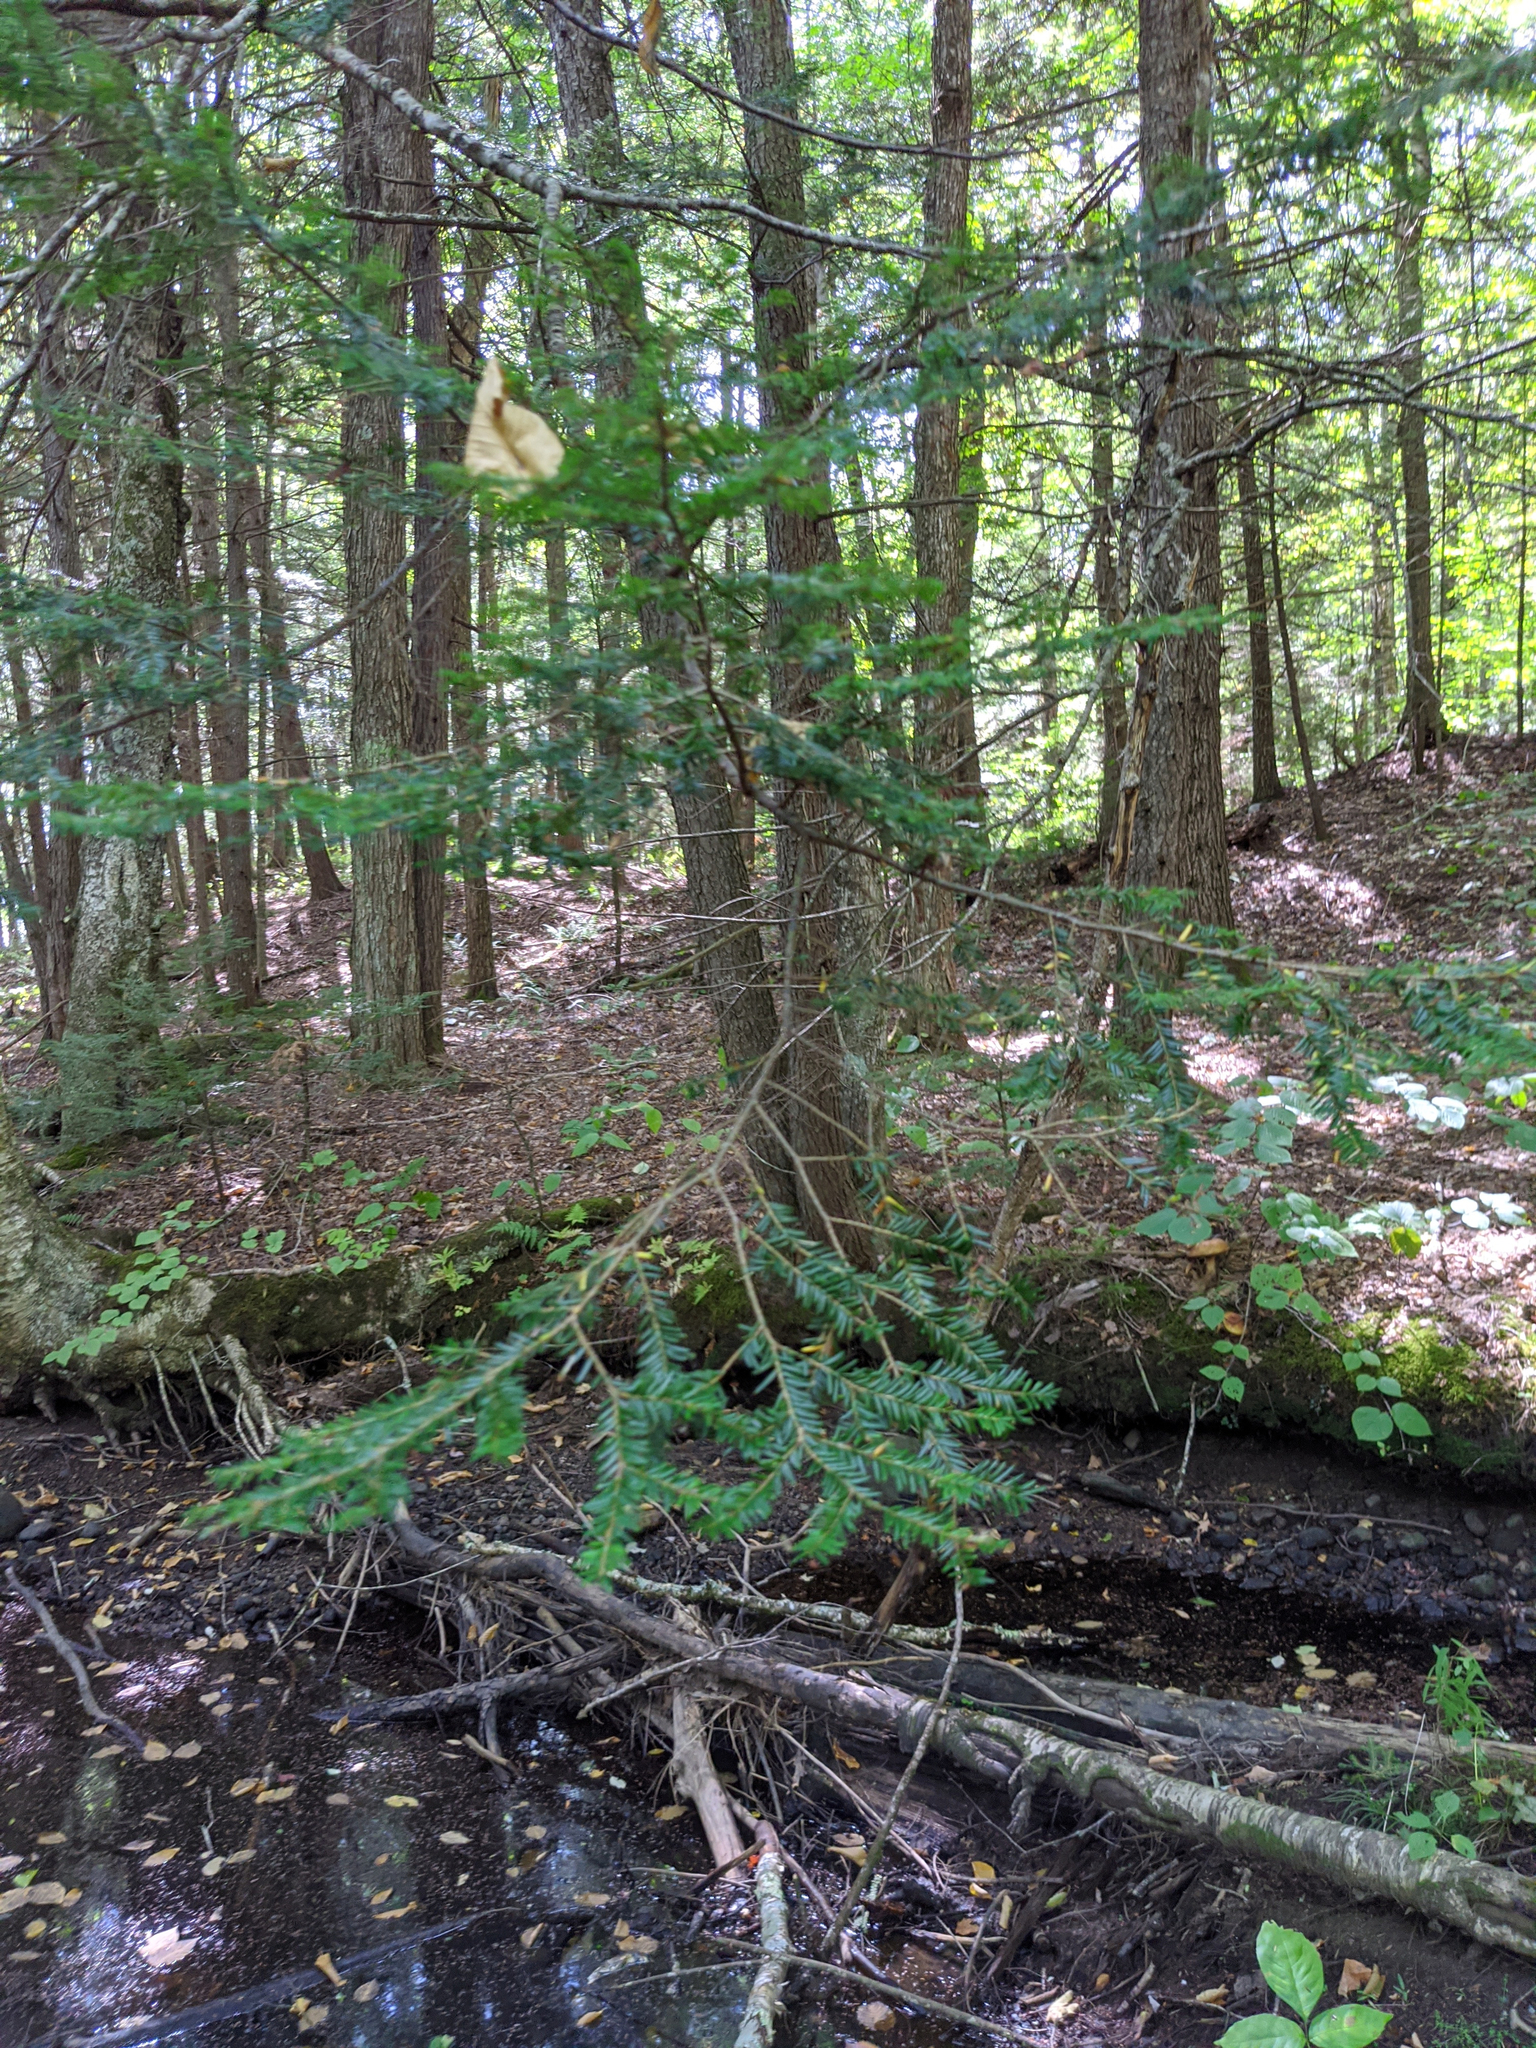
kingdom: Plantae
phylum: Tracheophyta
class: Pinopsida
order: Pinales
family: Pinaceae
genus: Tsuga
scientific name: Tsuga canadensis
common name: Eastern hemlock
